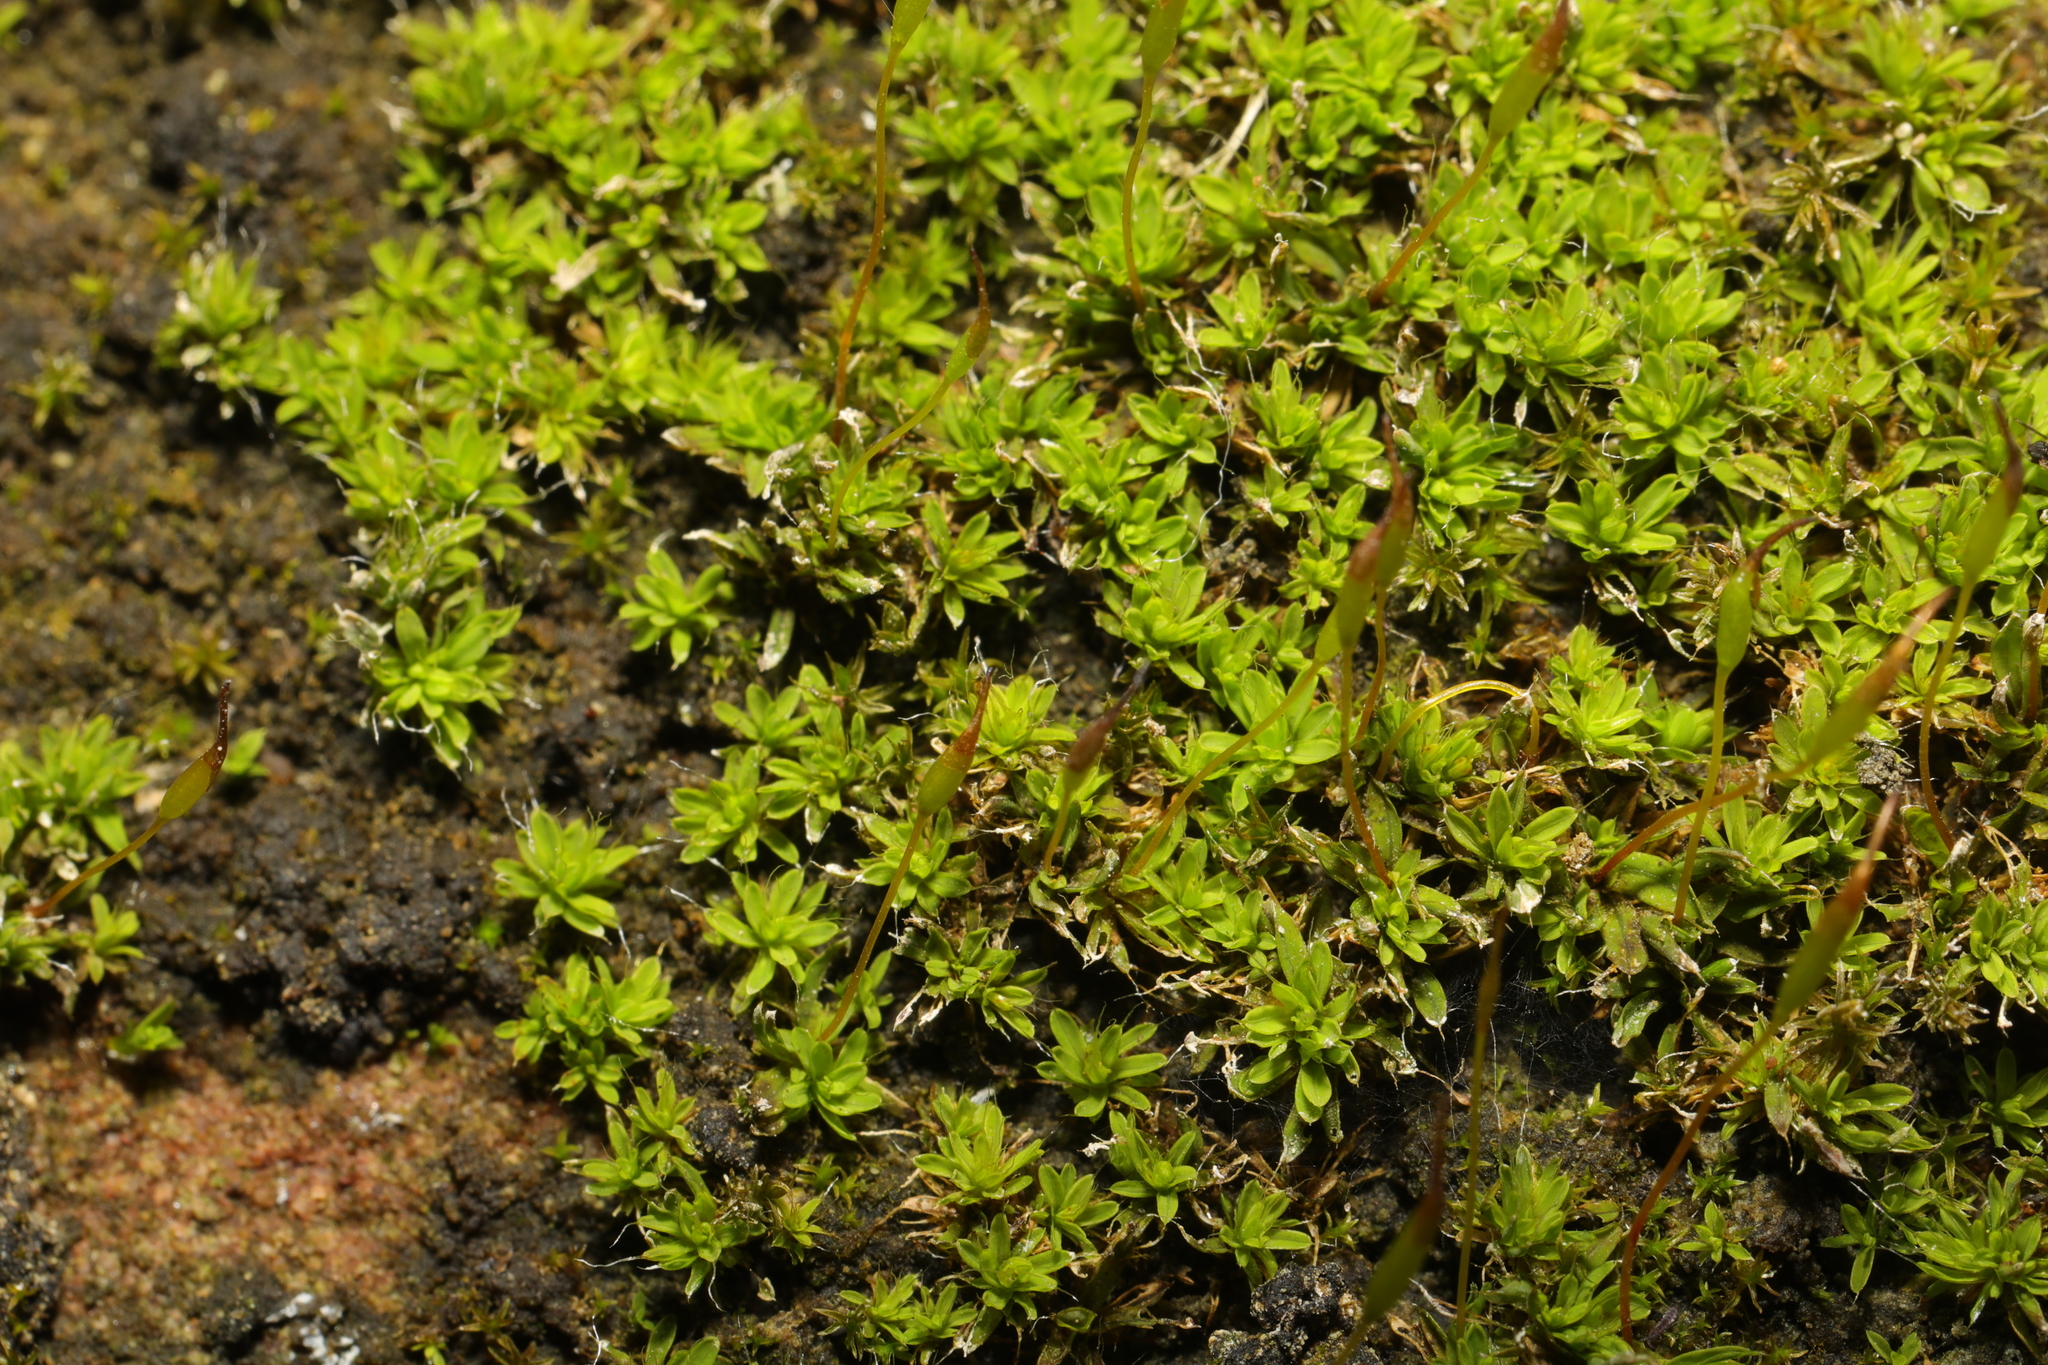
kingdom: Plantae
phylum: Bryophyta
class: Bryopsida
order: Pottiales
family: Pottiaceae
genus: Tortula
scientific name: Tortula muralis
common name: Wall screw-moss
